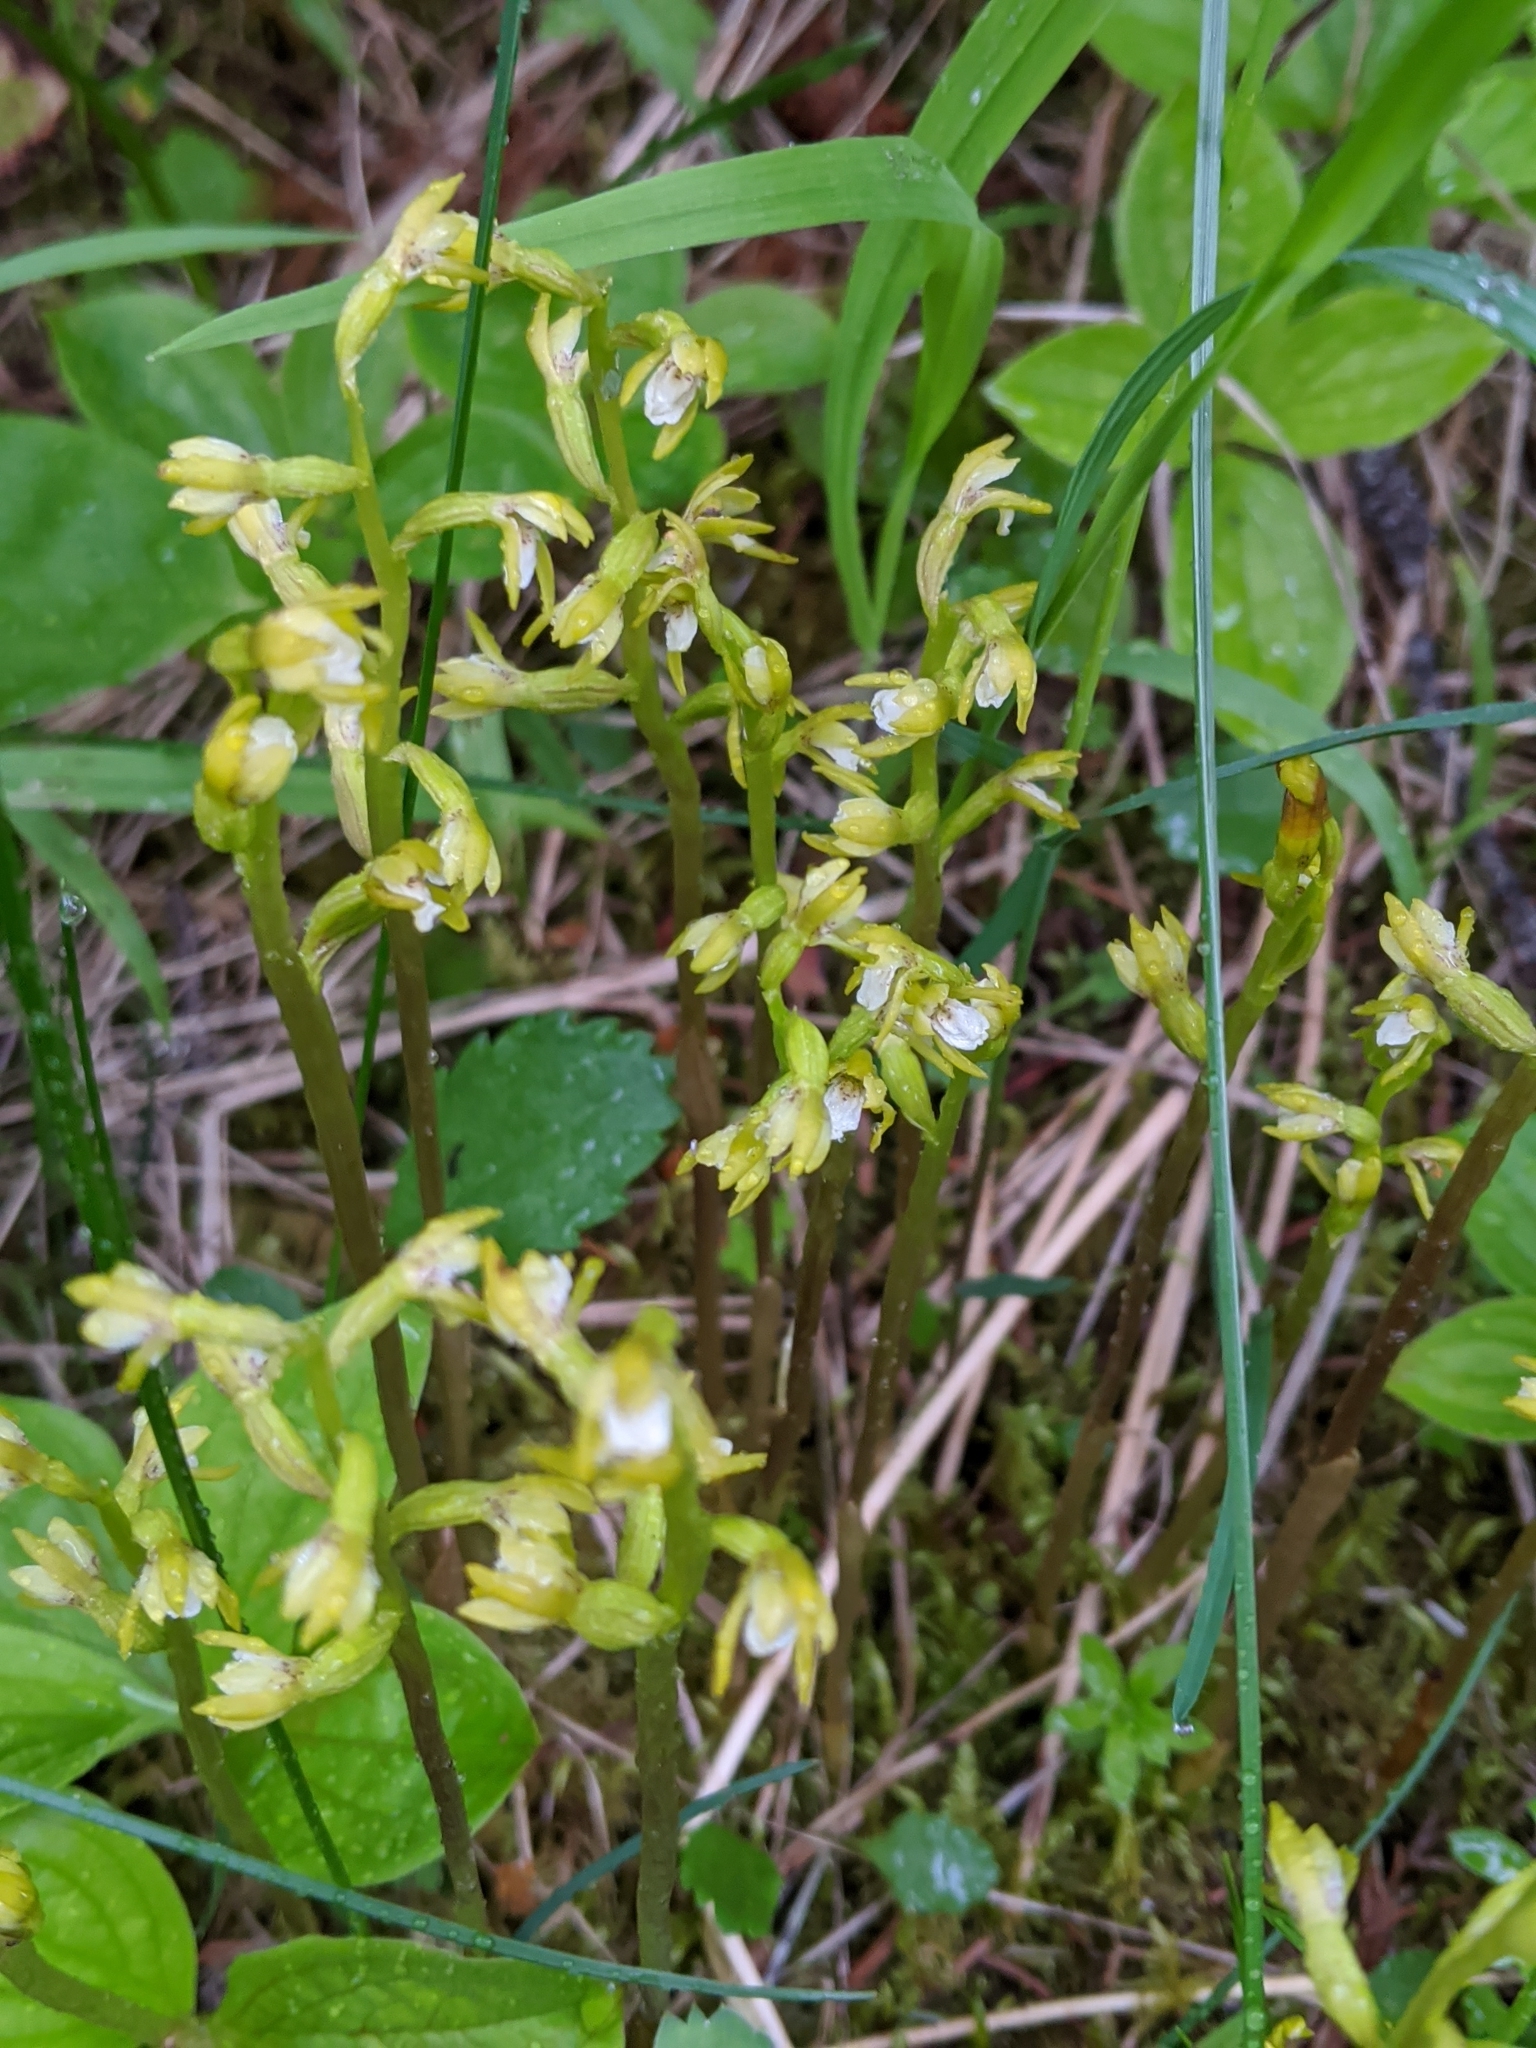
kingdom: Plantae
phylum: Tracheophyta
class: Liliopsida
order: Asparagales
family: Orchidaceae
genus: Corallorhiza
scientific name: Corallorhiza trifida
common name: Yellow coralroot
